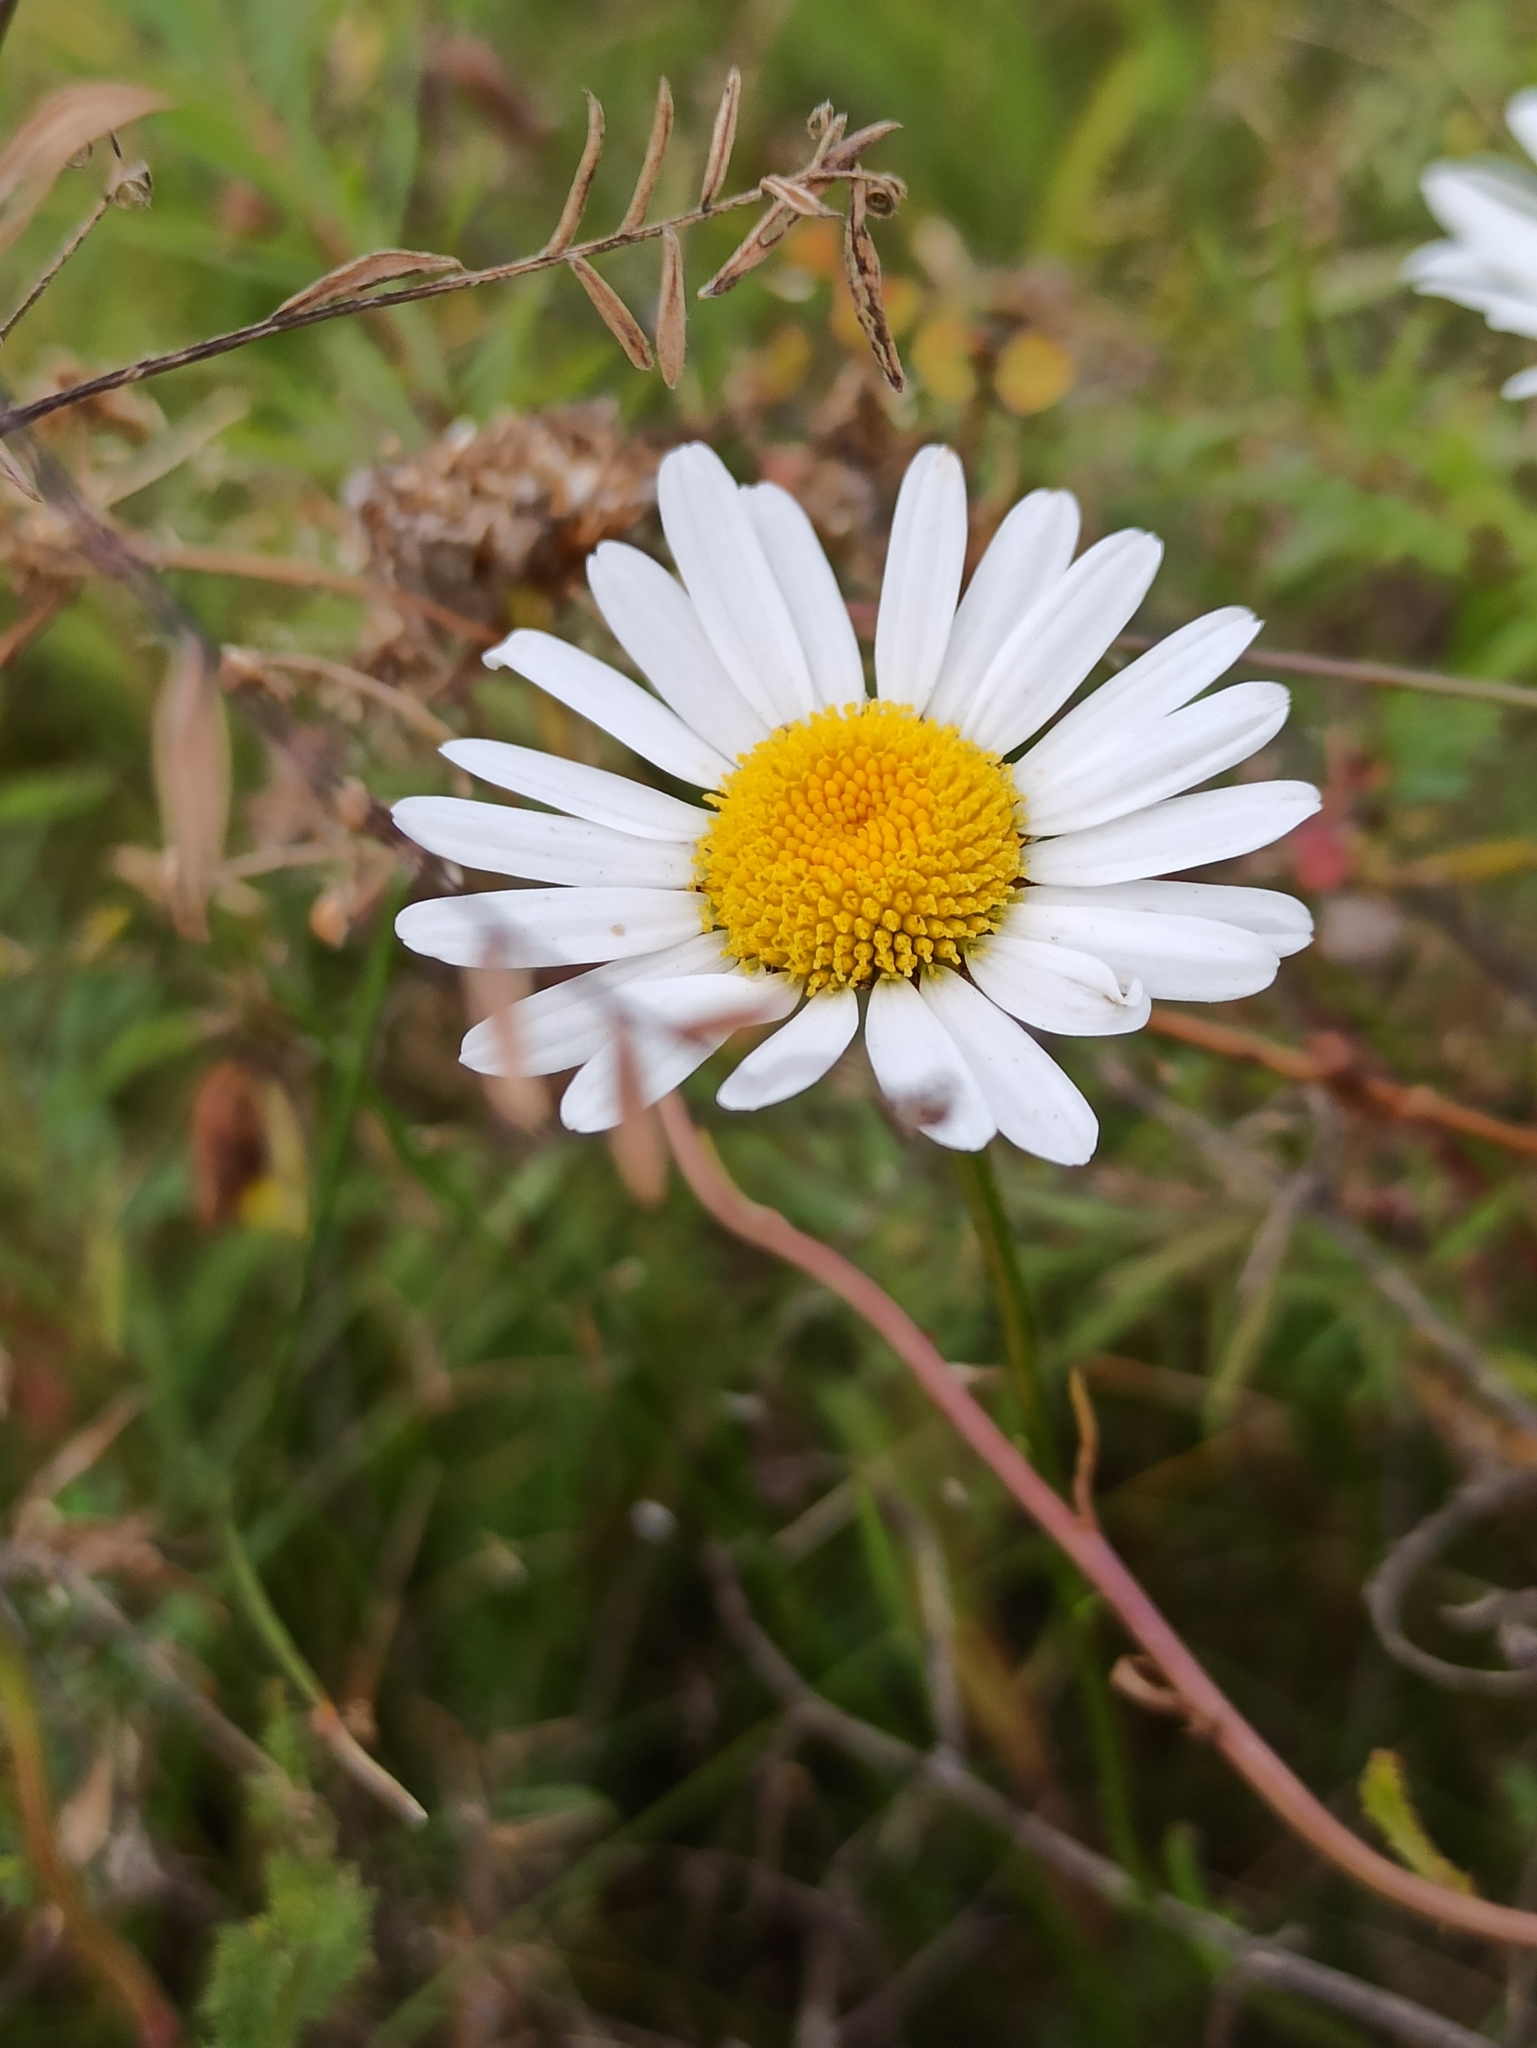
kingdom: Plantae
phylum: Tracheophyta
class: Magnoliopsida
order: Asterales
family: Asteraceae
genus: Leucanthemum
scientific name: Leucanthemum vulgare
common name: Oxeye daisy
